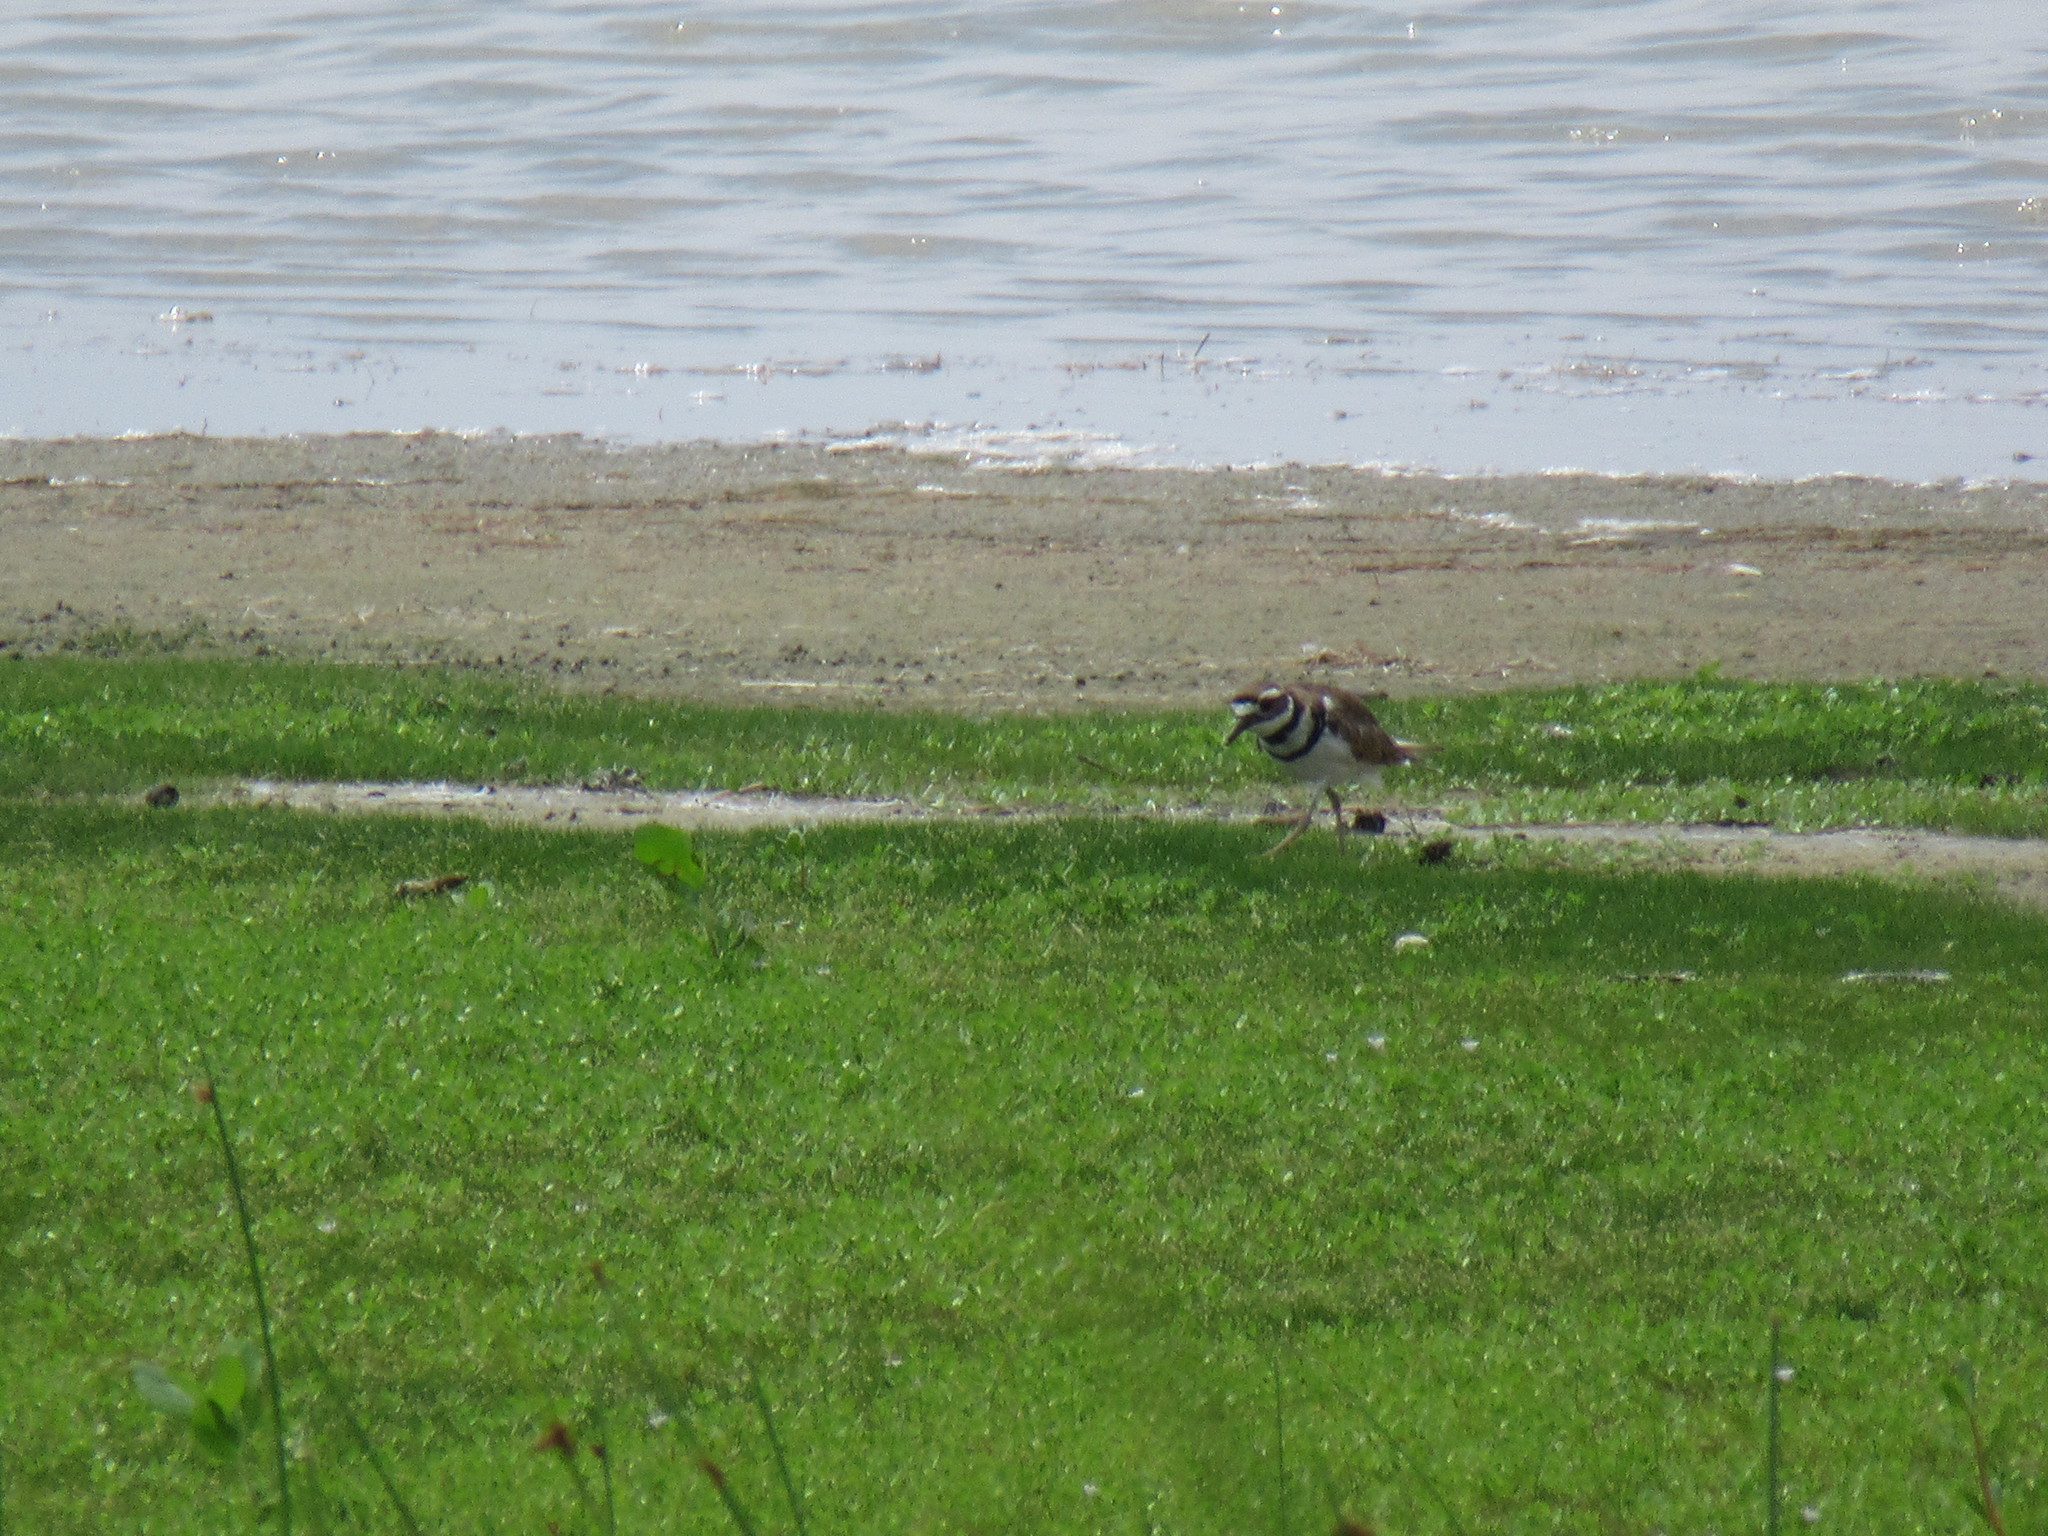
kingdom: Animalia
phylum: Chordata
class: Aves
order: Charadriiformes
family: Charadriidae
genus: Charadrius
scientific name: Charadrius vociferus
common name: Killdeer
